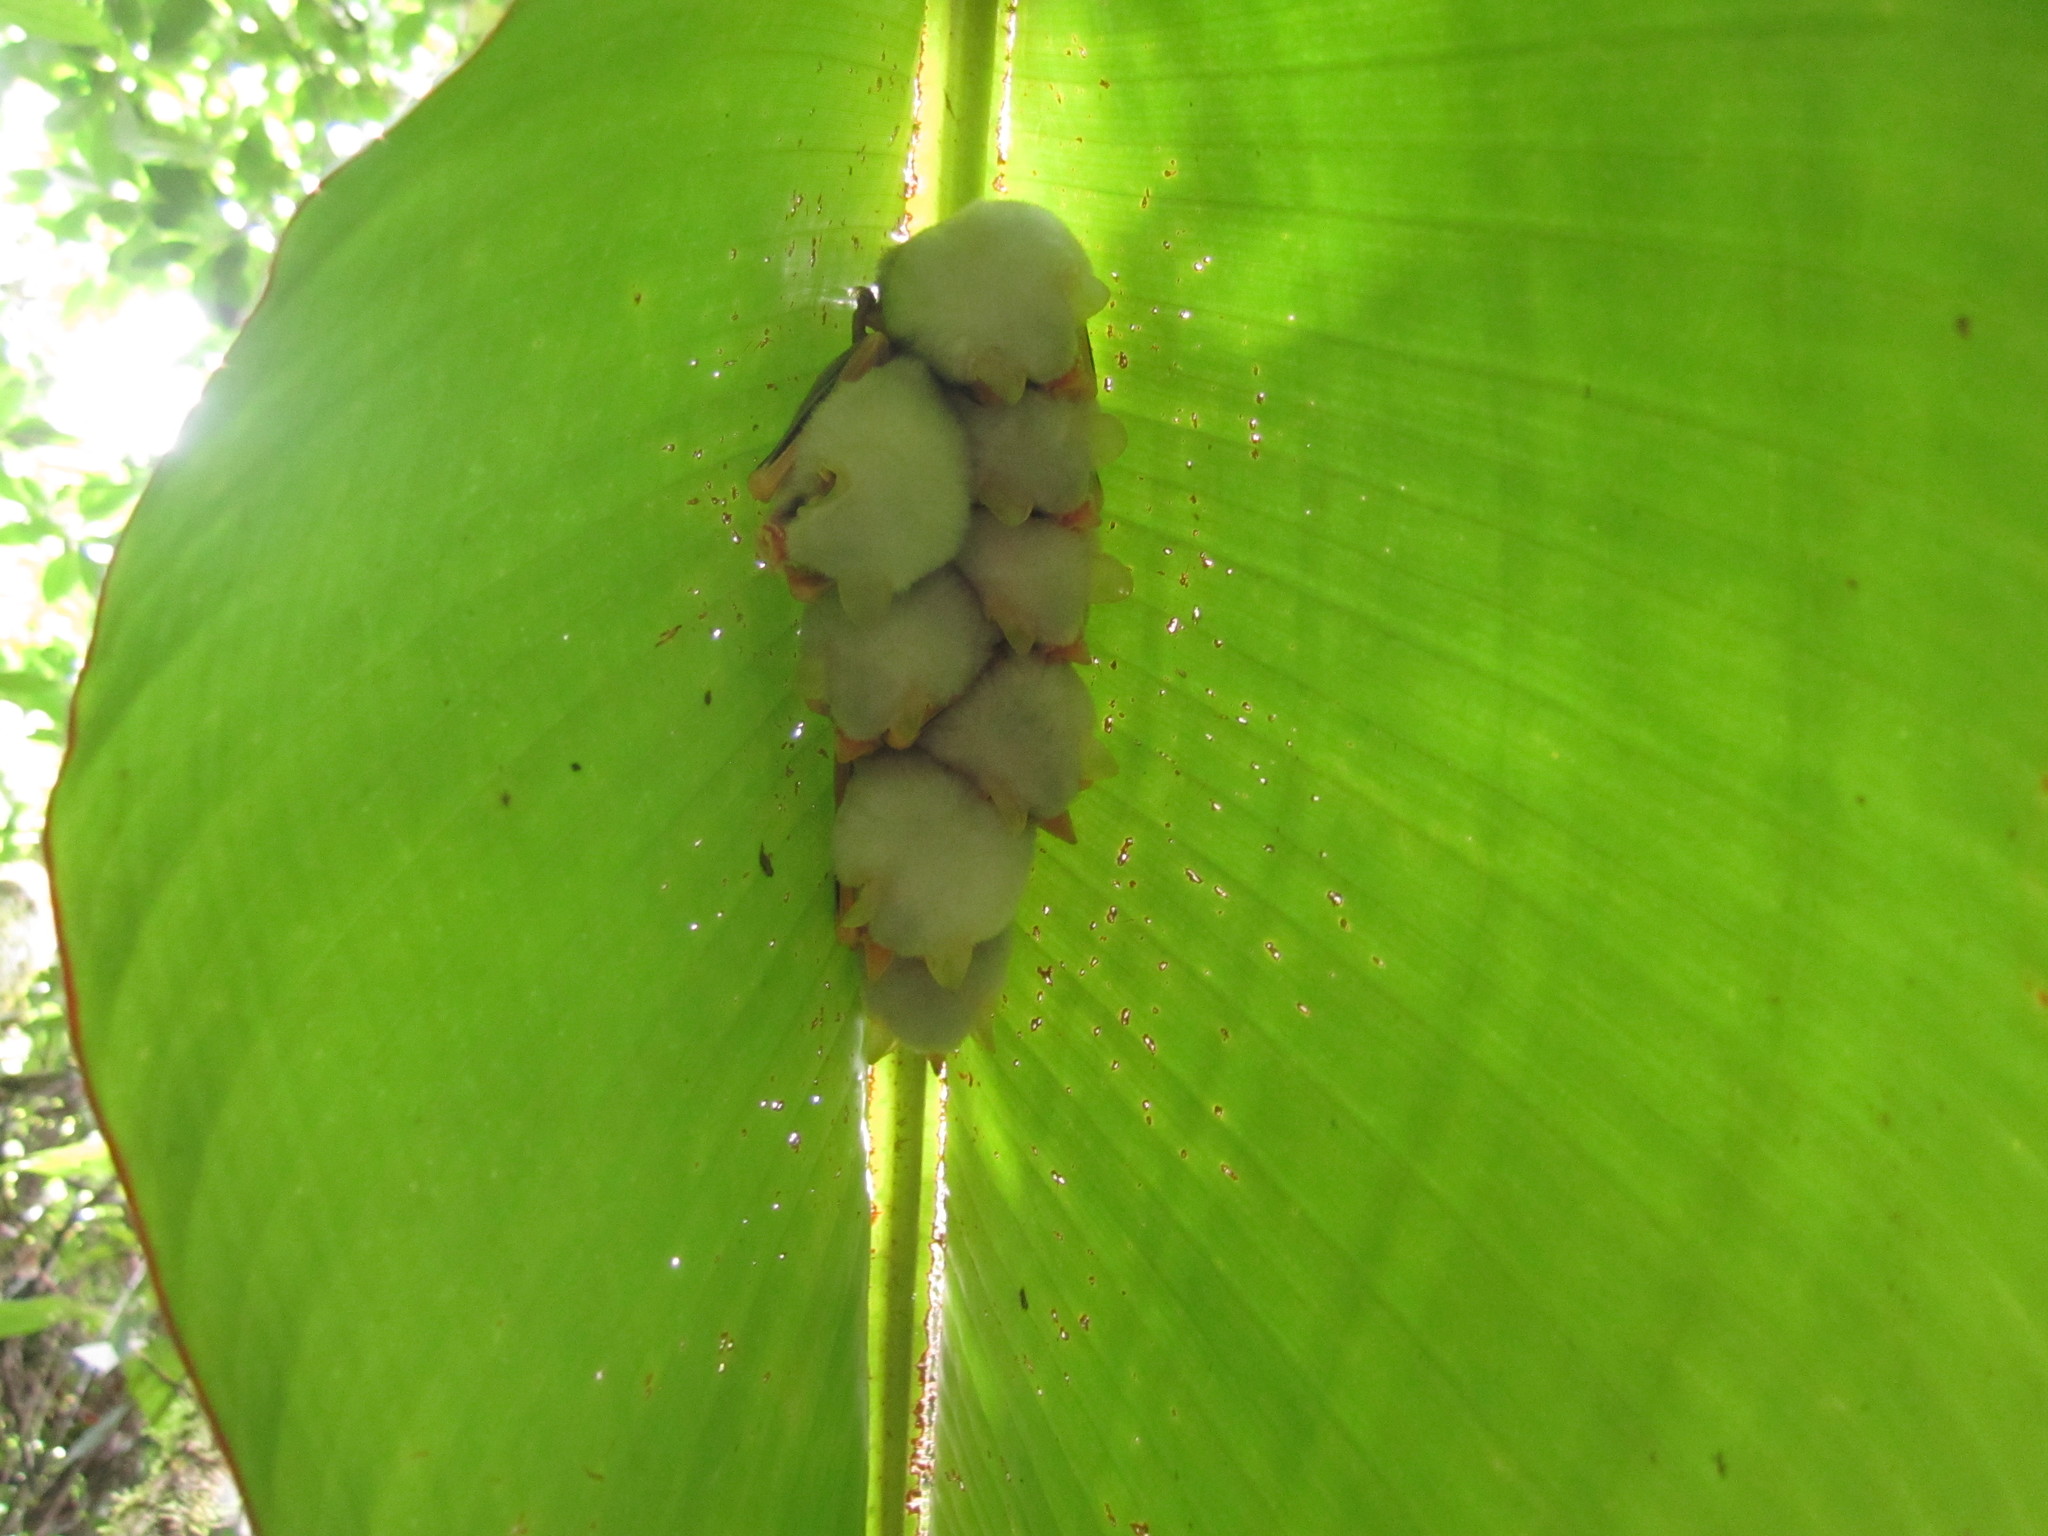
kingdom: Animalia
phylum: Chordata
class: Mammalia
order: Chiroptera
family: Phyllostomidae
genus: Ectophylla
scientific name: Ectophylla alba
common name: Honduran white bat
